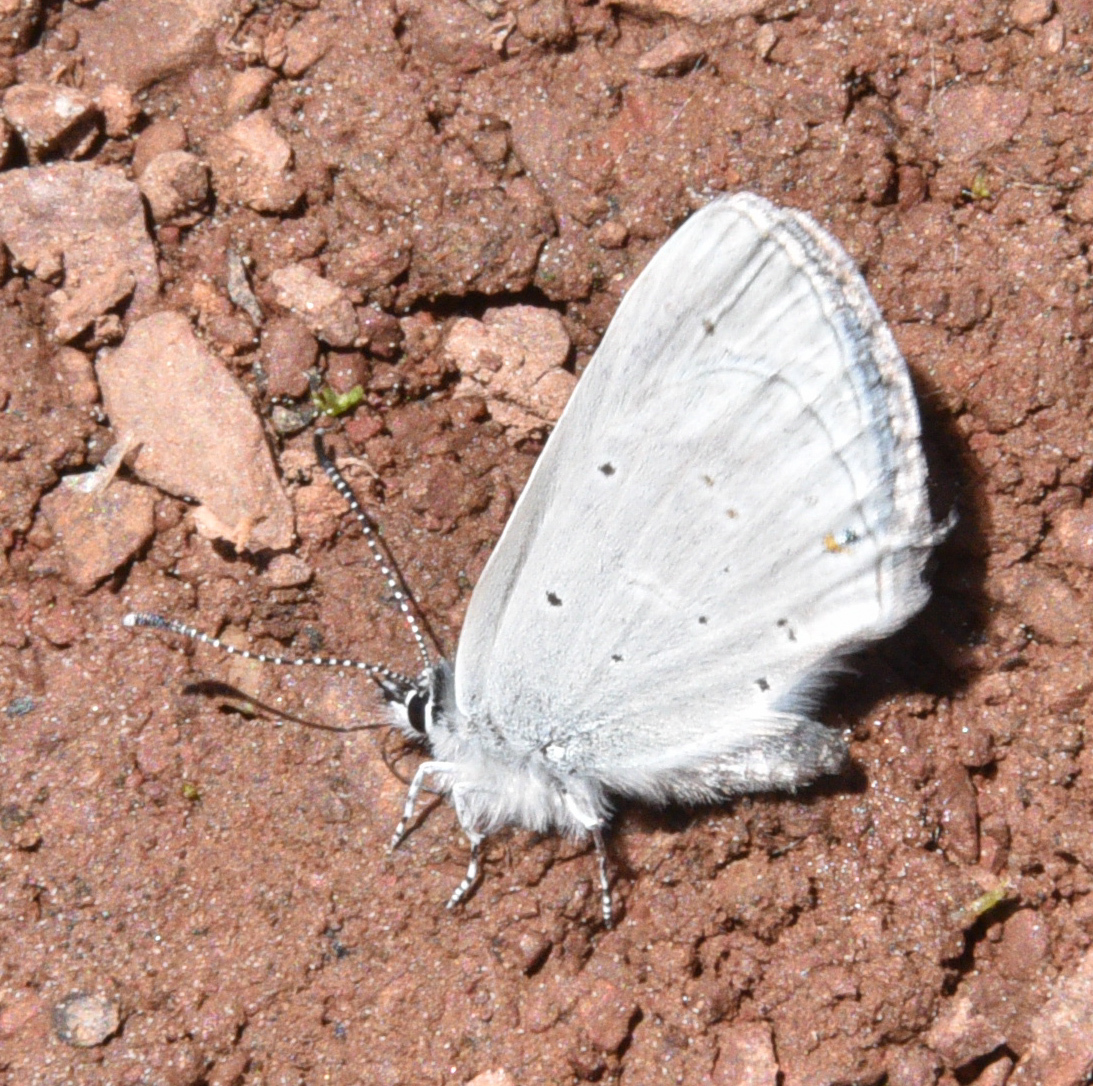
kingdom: Animalia
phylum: Arthropoda
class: Insecta
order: Lepidoptera
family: Lycaenidae
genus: Elkalyce
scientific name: Elkalyce amyntula
